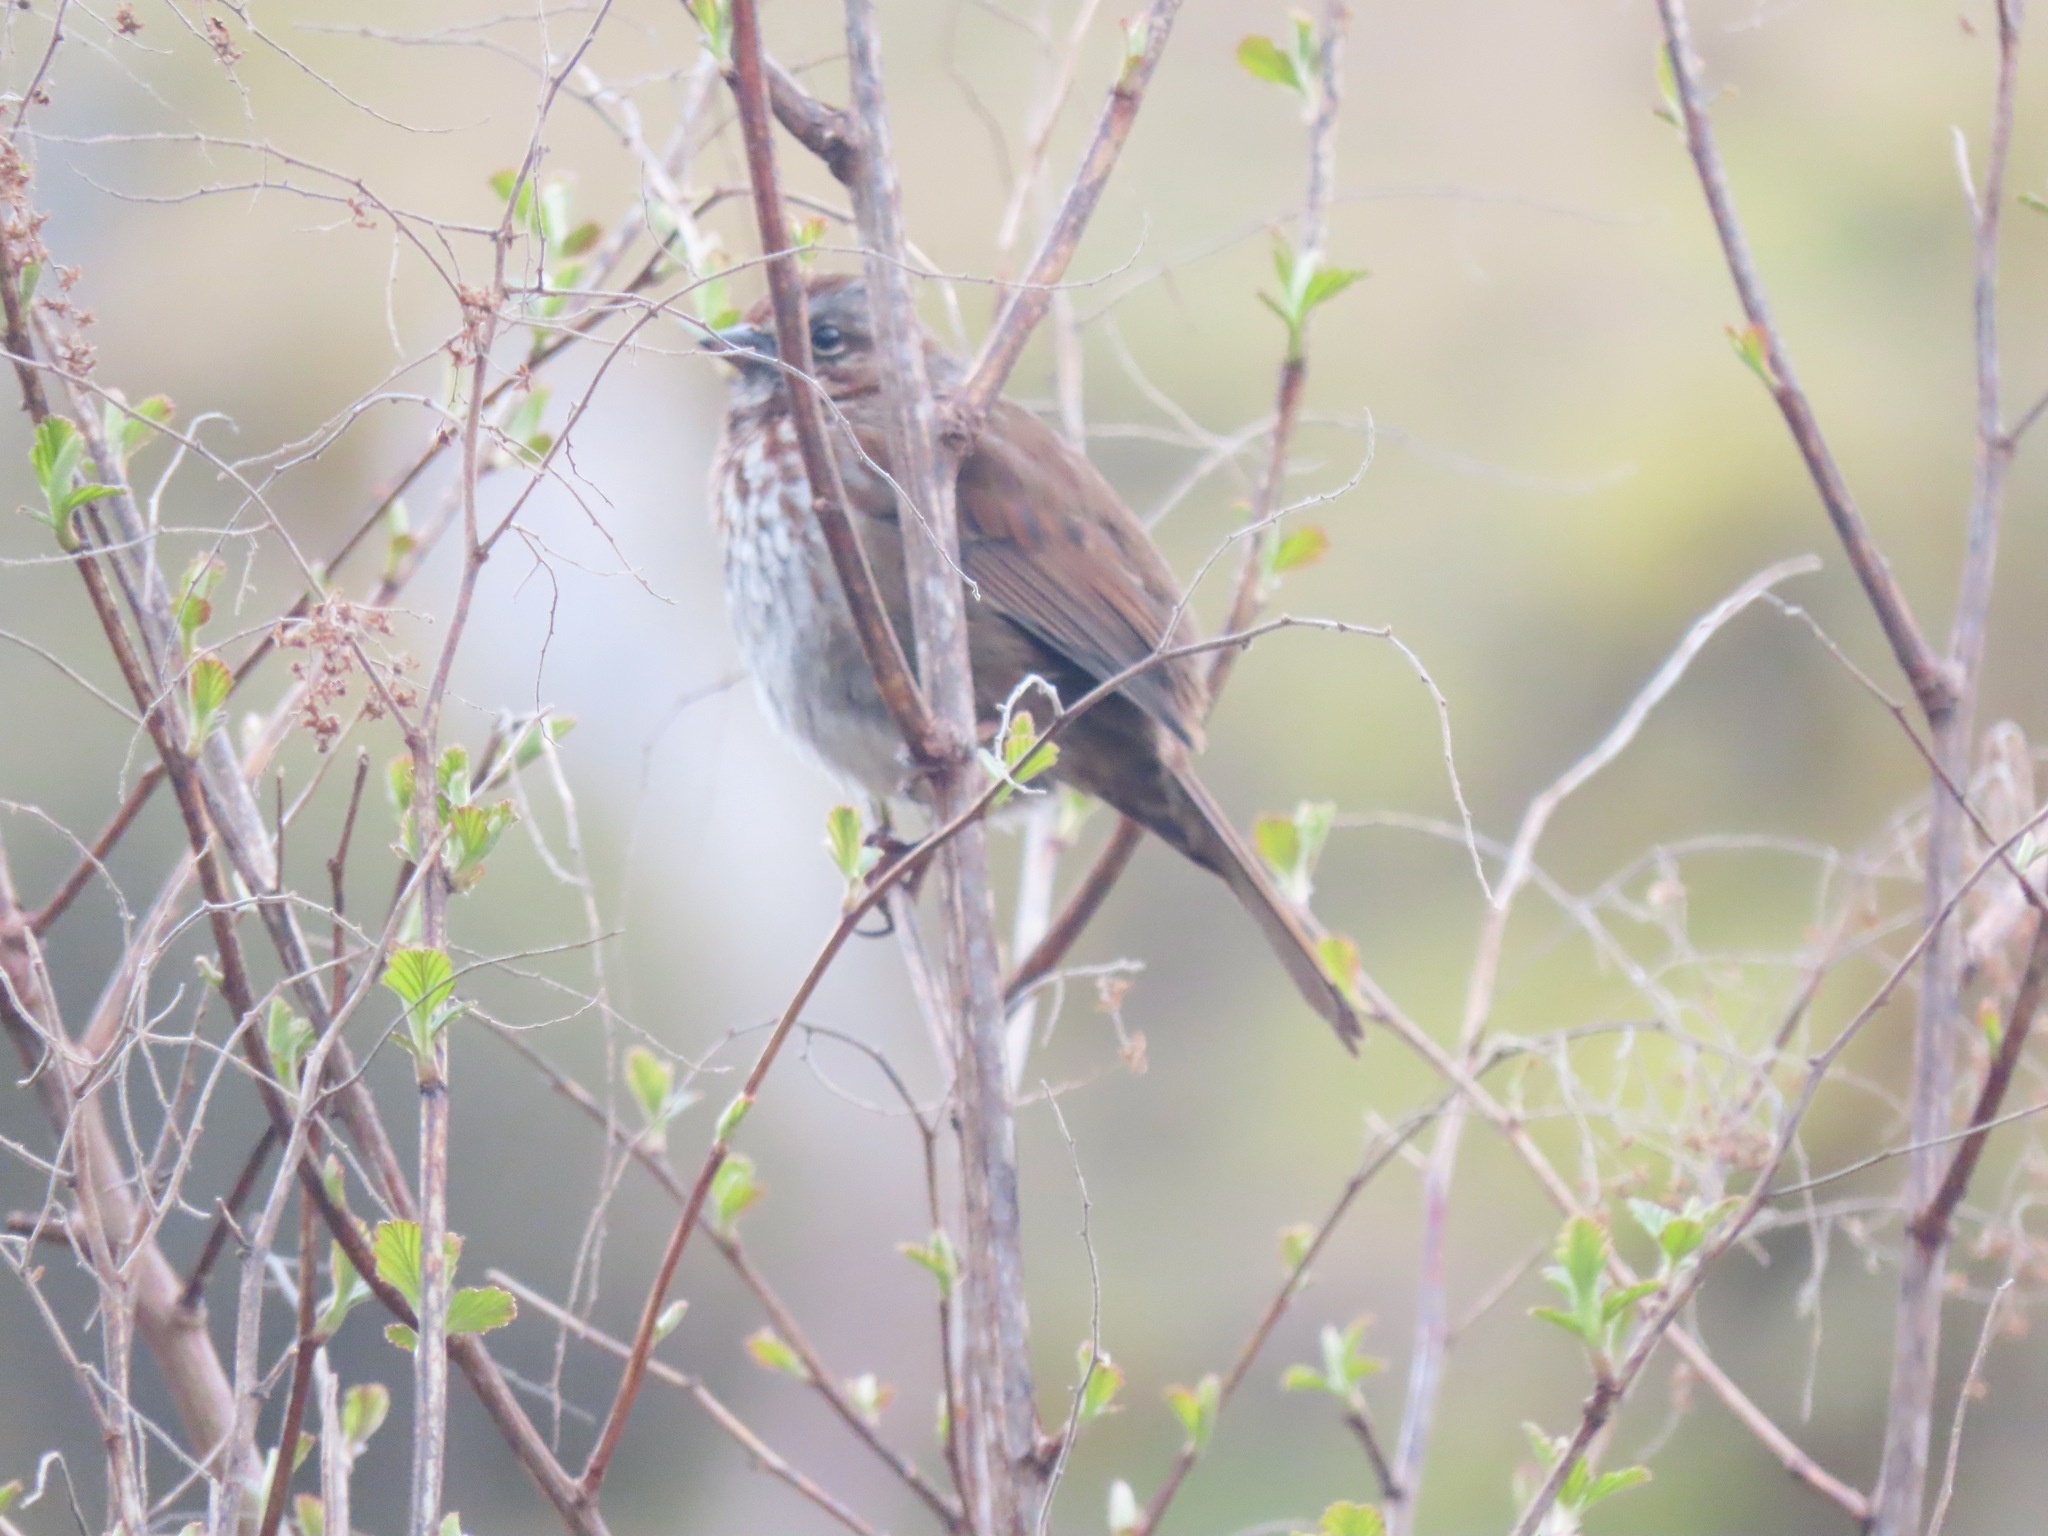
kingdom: Animalia
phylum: Chordata
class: Aves
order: Passeriformes
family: Passerellidae
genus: Melospiza
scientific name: Melospiza melodia
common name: Song sparrow
